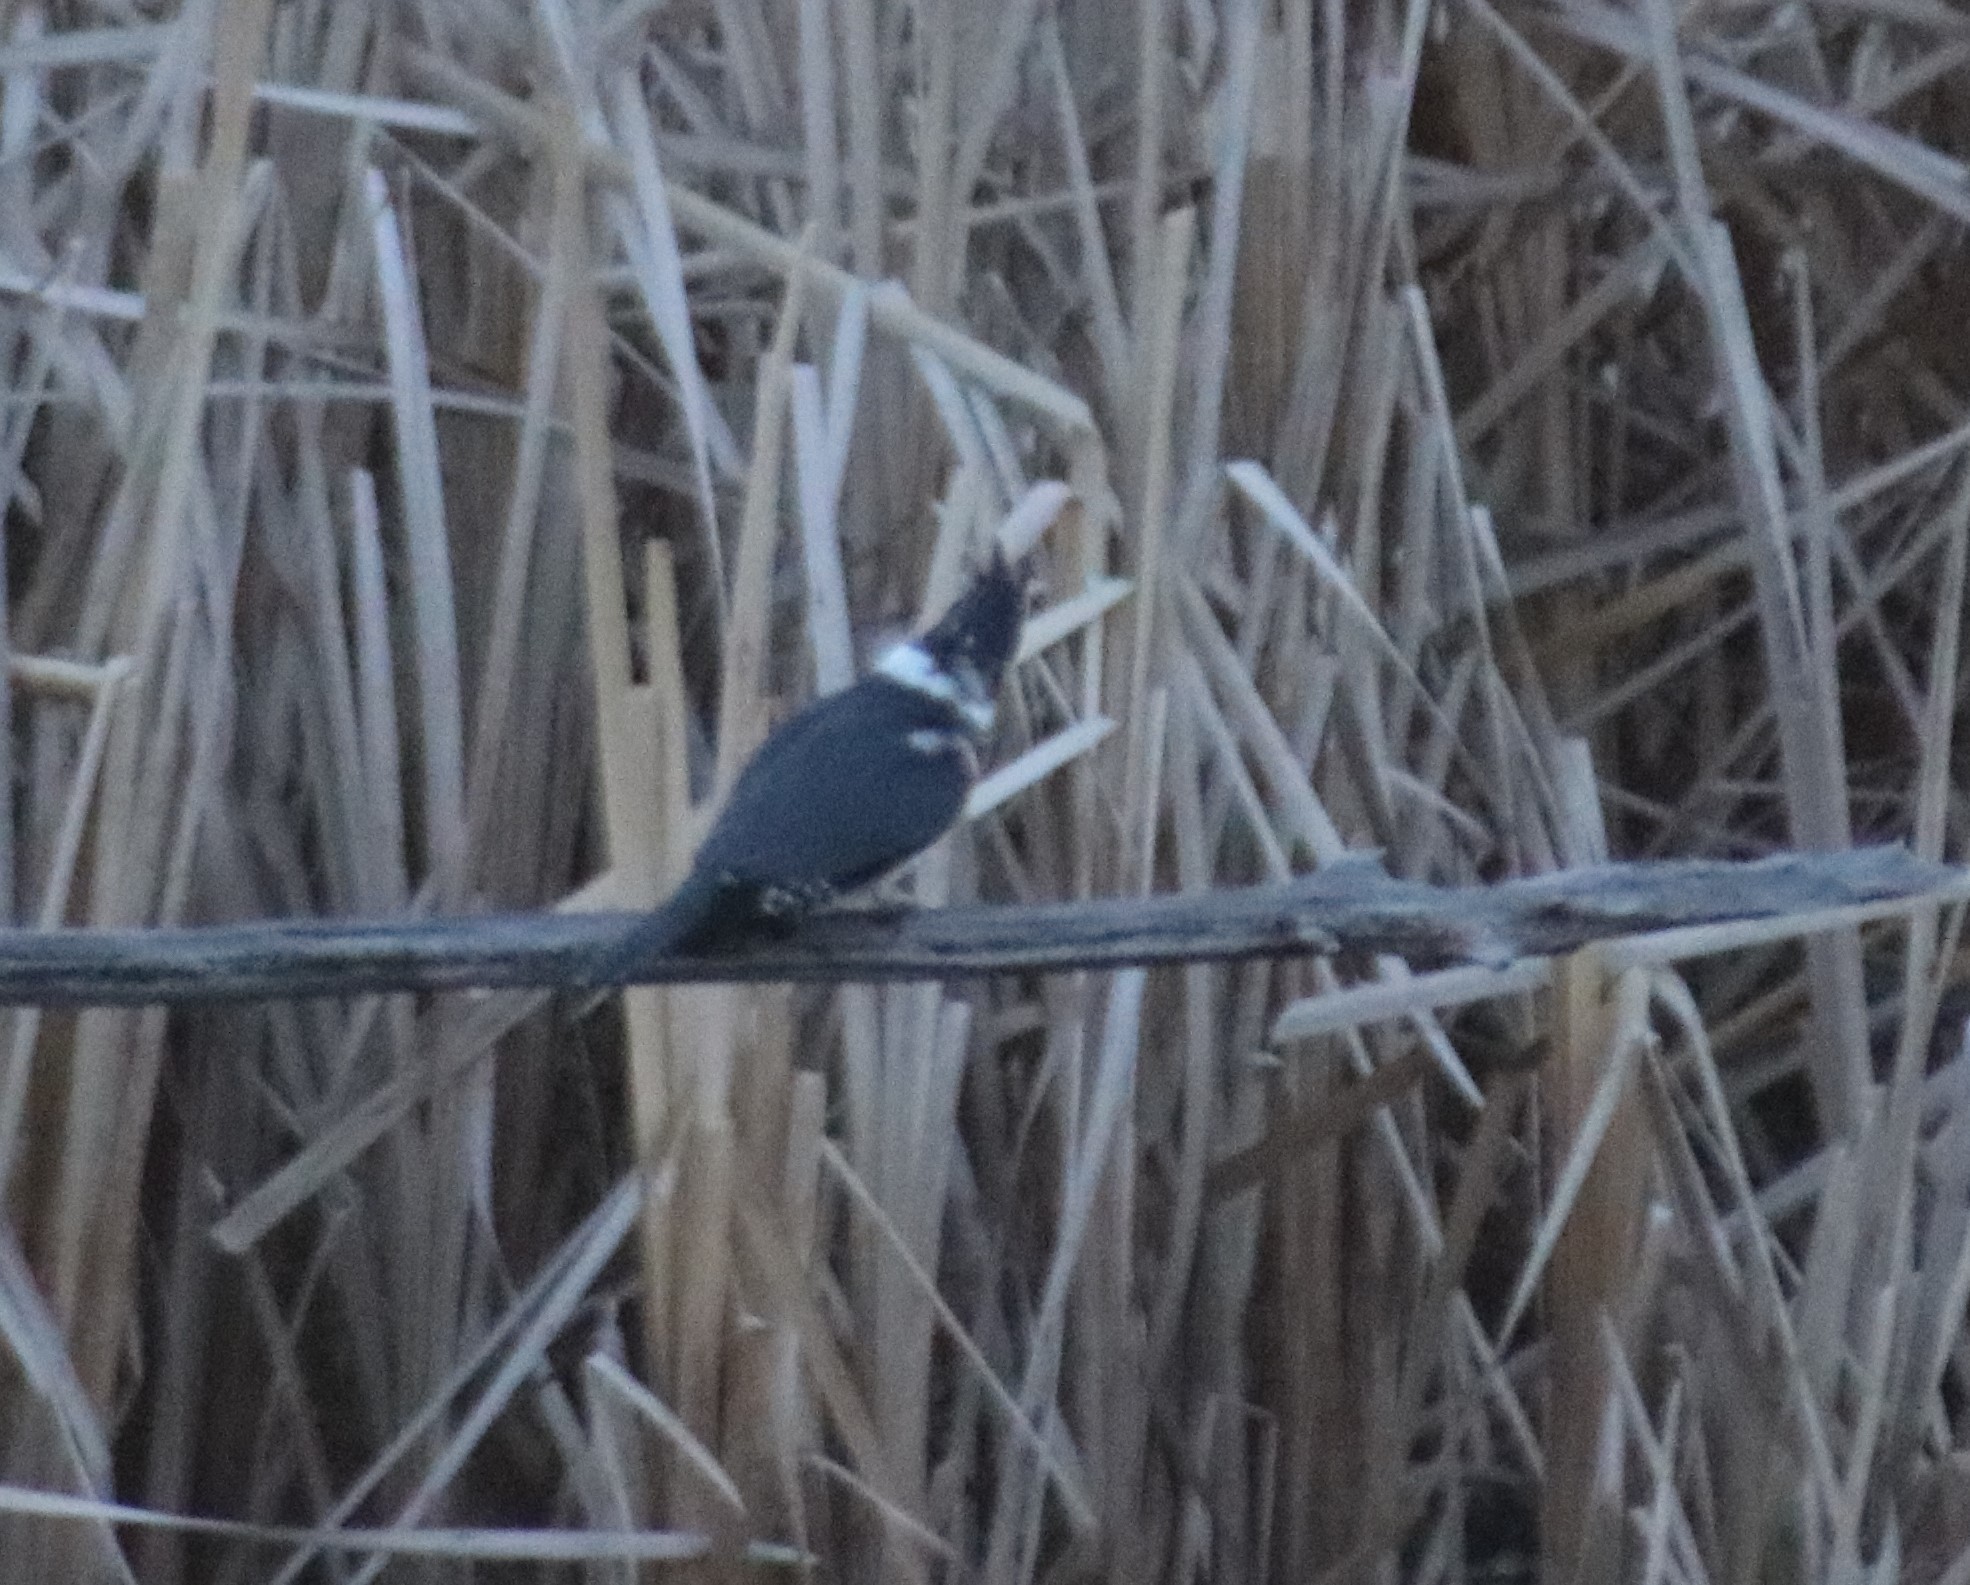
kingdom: Animalia
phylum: Chordata
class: Aves
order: Coraciiformes
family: Alcedinidae
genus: Megaceryle
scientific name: Megaceryle alcyon
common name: Belted kingfisher
